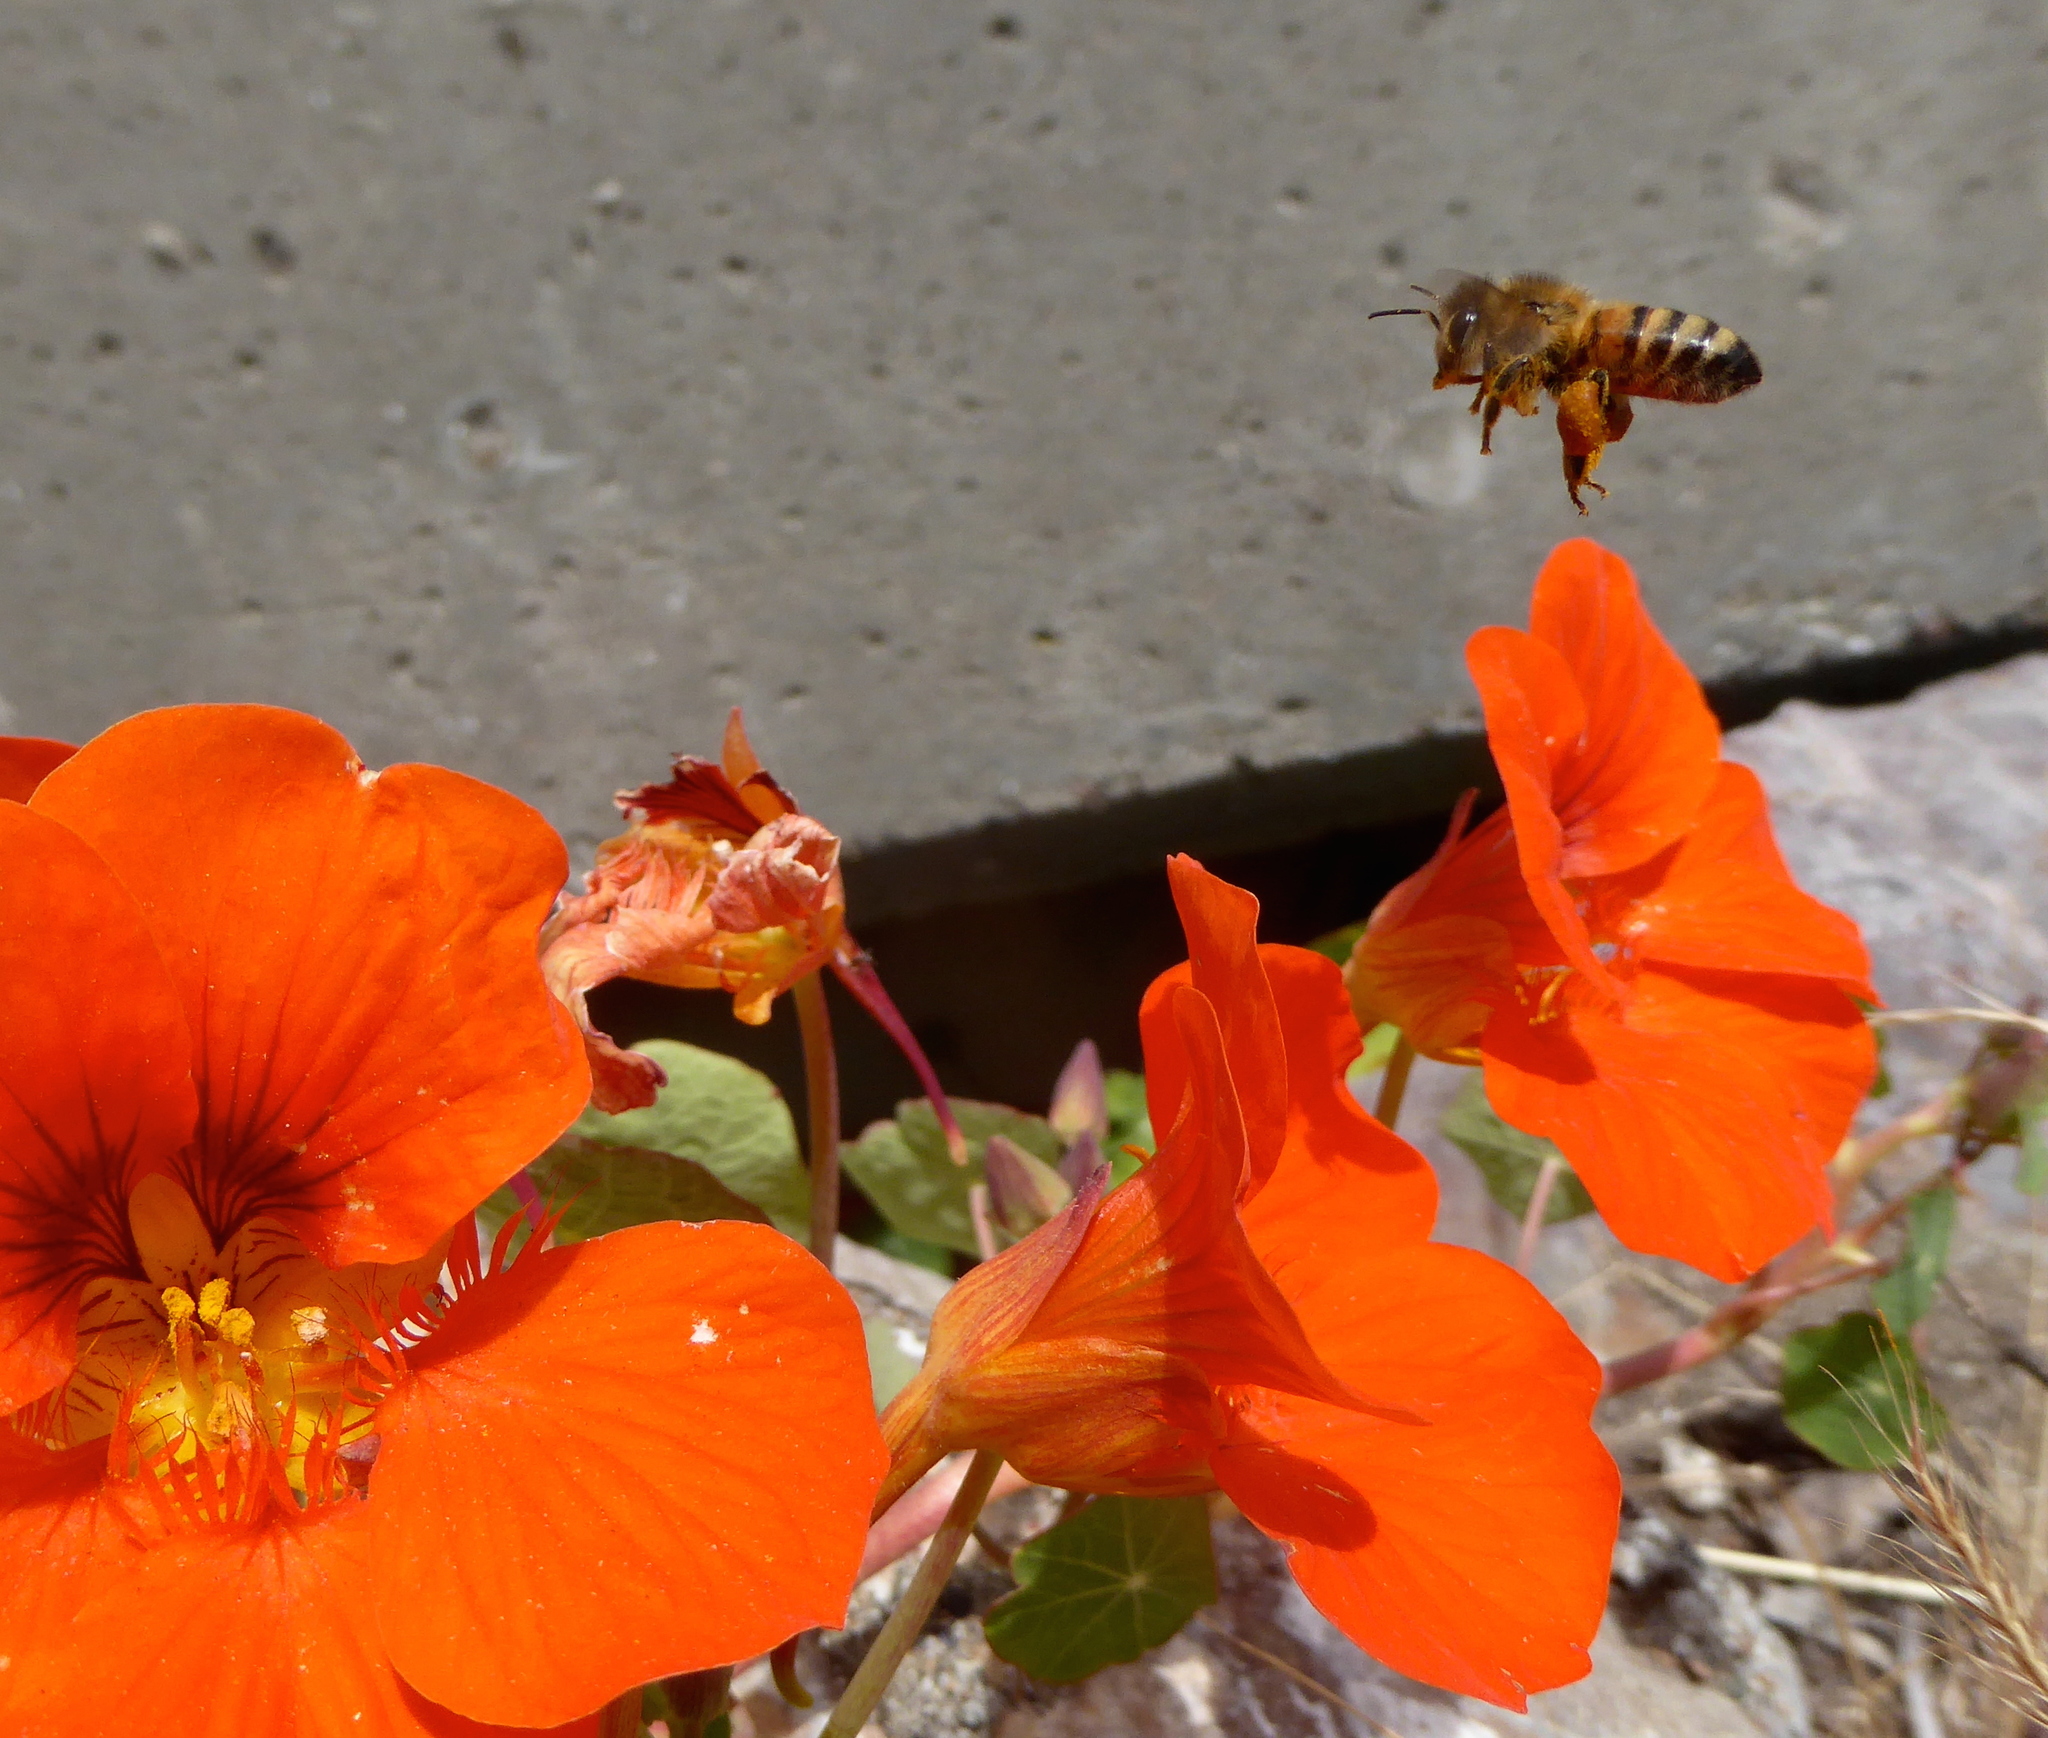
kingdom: Animalia
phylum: Arthropoda
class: Insecta
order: Hymenoptera
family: Apidae
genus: Apis
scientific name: Apis mellifera
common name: Honey bee
